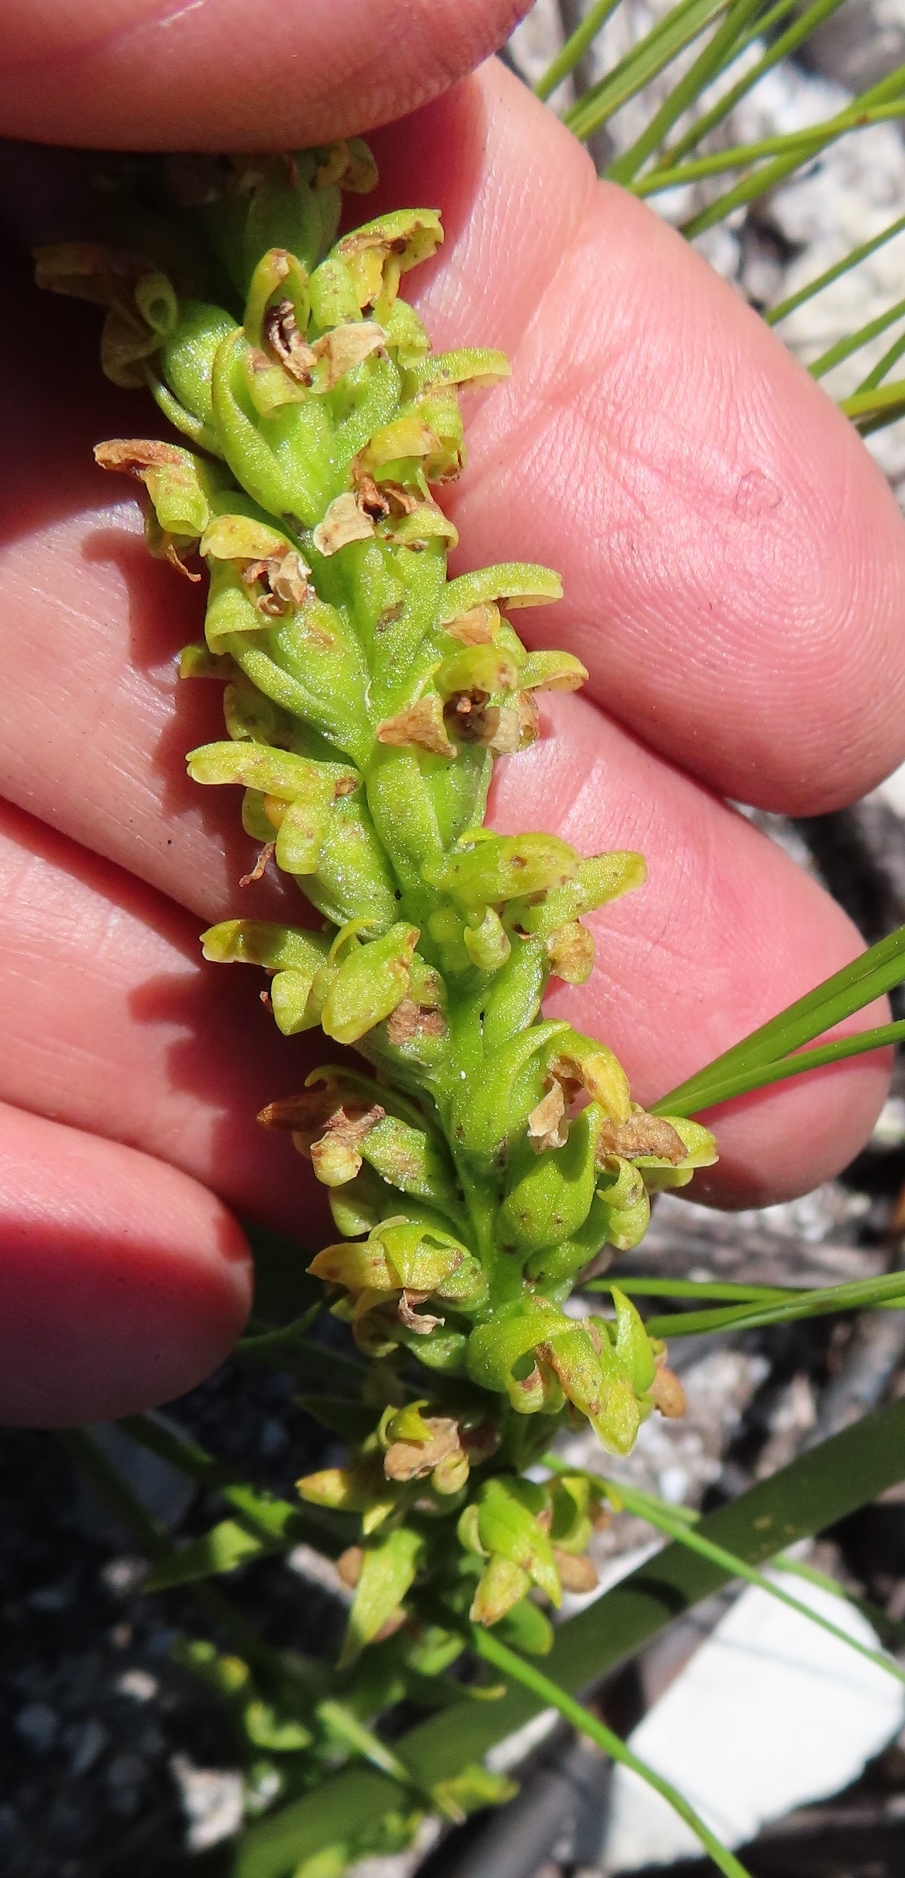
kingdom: Plantae
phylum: Tracheophyta
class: Liliopsida
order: Asparagales
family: Orchidaceae
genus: Disa
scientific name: Disa cylindrica
